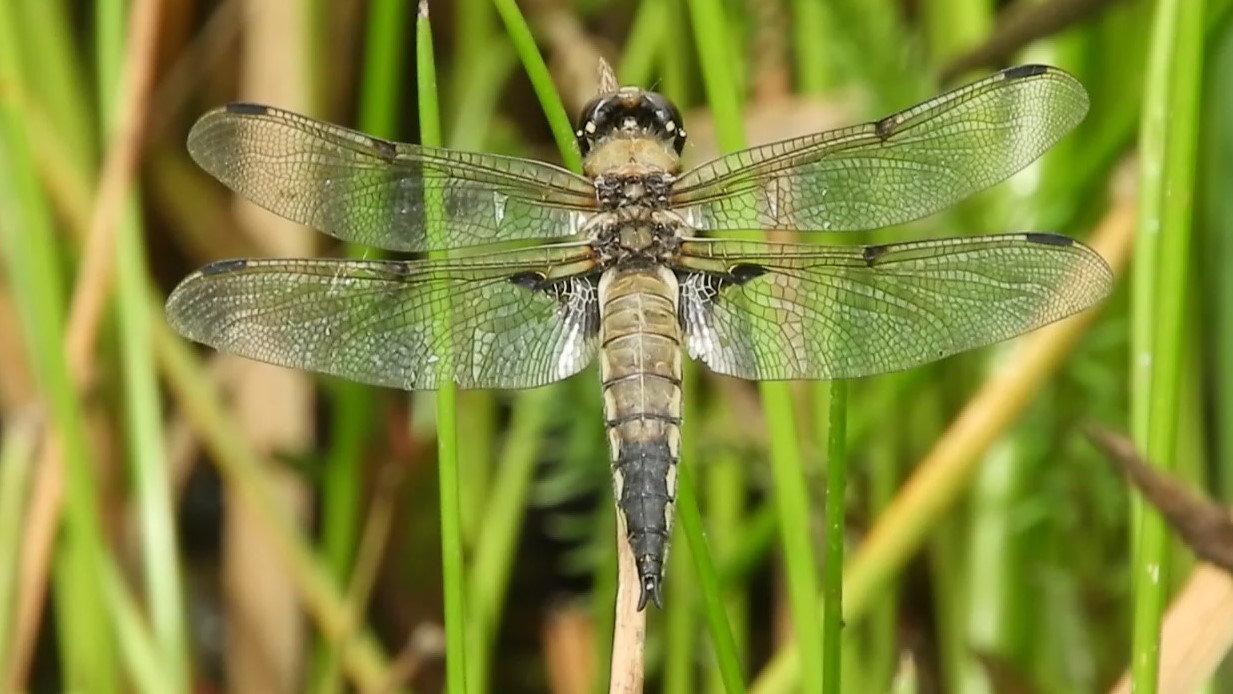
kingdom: Animalia
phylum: Arthropoda
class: Insecta
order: Odonata
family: Libellulidae
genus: Libellula
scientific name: Libellula quadrimaculata
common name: Four-spotted chaser
